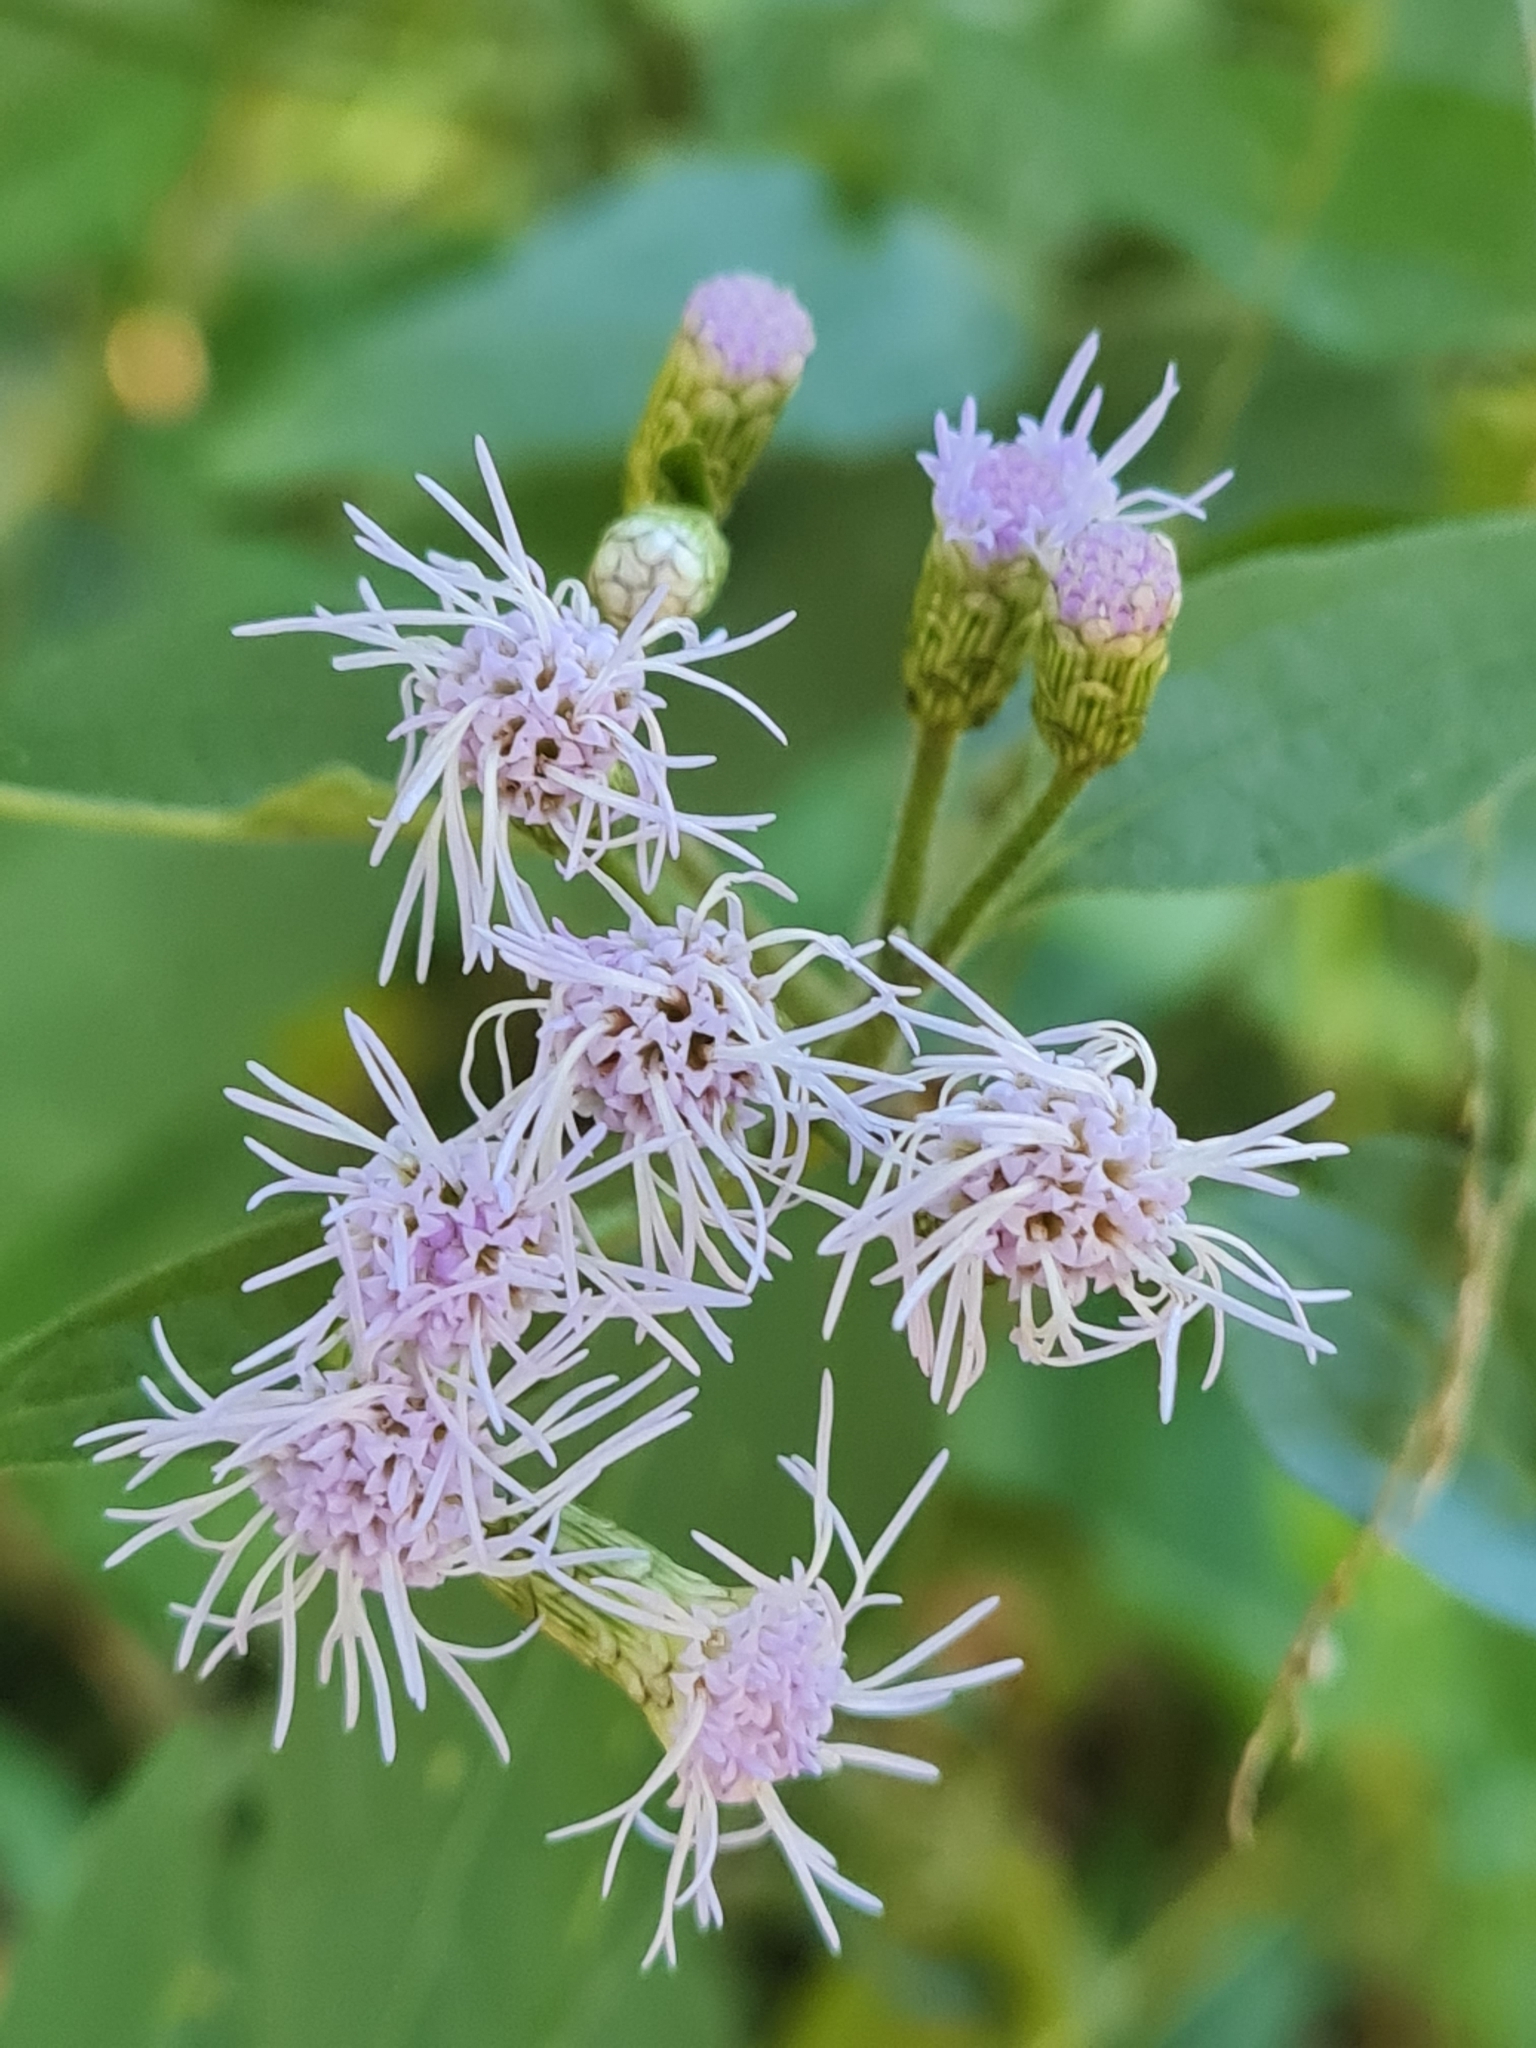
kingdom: Plantae
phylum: Tracheophyta
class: Magnoliopsida
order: Asterales
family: Asteraceae
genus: Chromolaena
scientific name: Chromolaena odorata
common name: Siamweed
